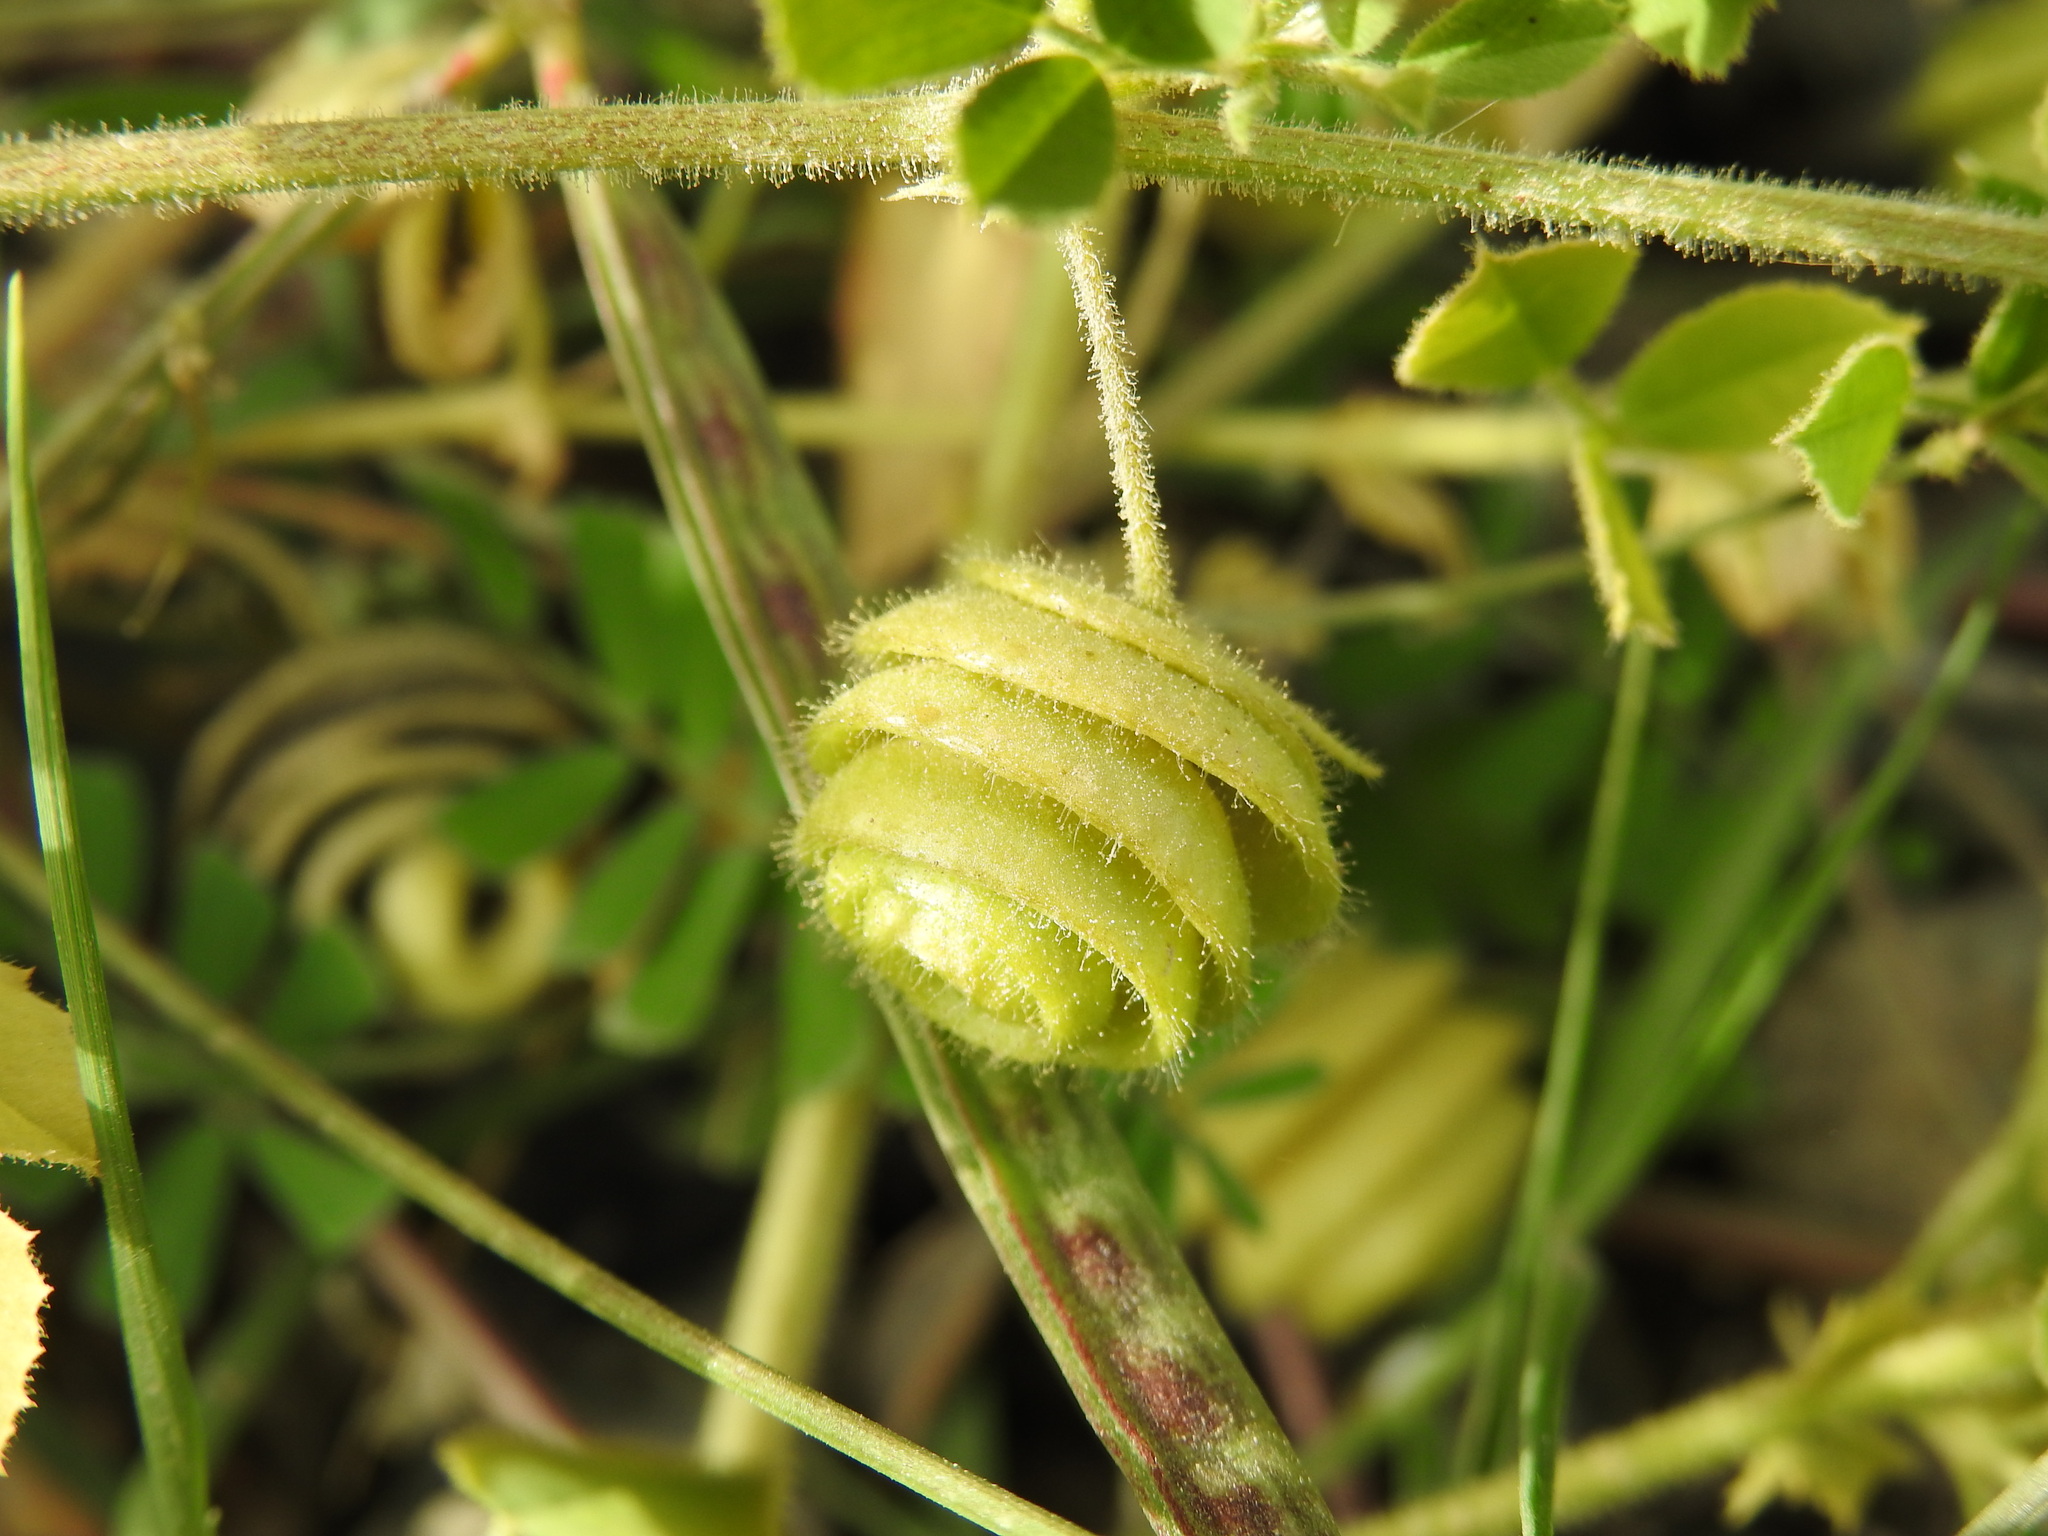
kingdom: Plantae
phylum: Tracheophyta
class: Magnoliopsida
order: Fabales
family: Fabaceae
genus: Medicago
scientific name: Medicago scutellata
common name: Snail medick
